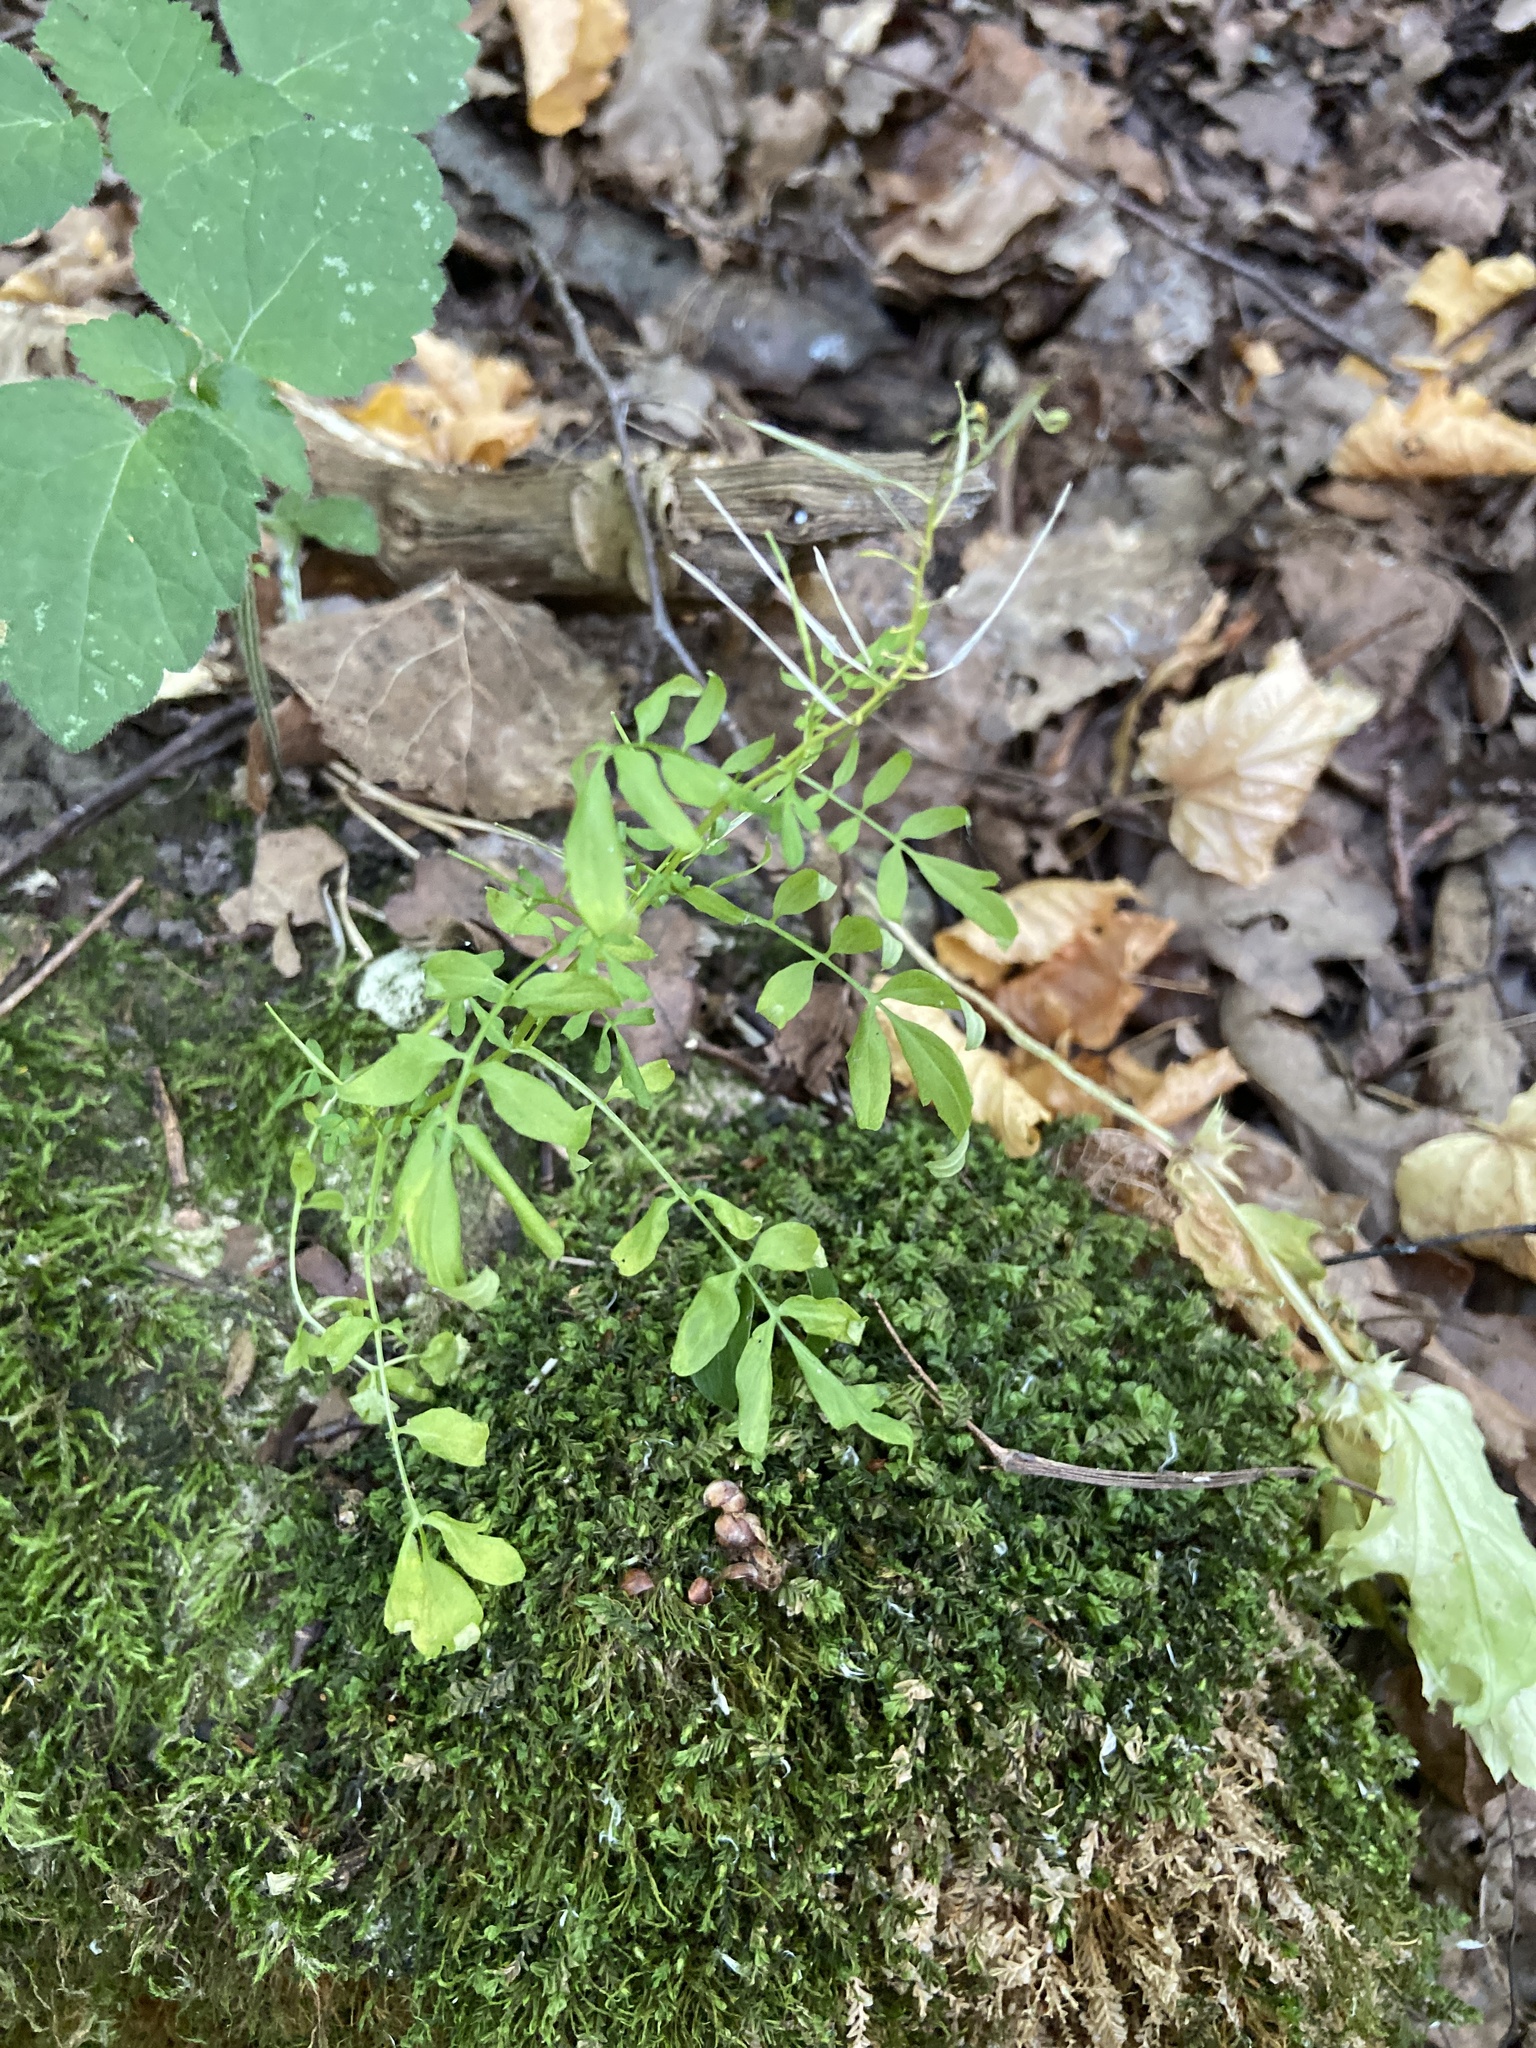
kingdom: Plantae
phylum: Tracheophyta
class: Magnoliopsida
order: Brassicales
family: Brassicaceae
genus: Cardamine
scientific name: Cardamine impatiens
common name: Narrow-leaved bitter-cress
